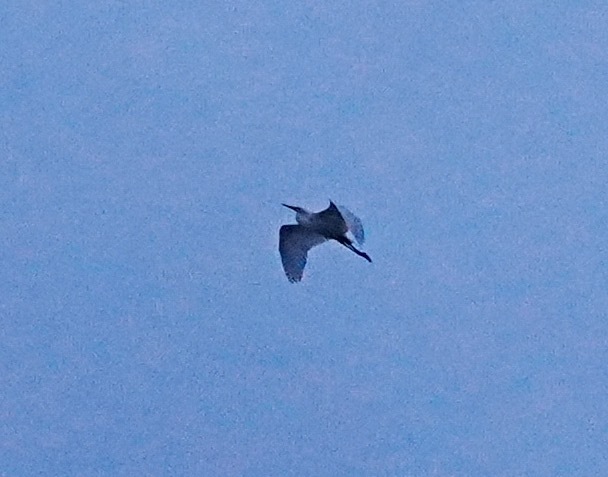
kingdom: Animalia
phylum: Chordata
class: Aves
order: Pelecaniformes
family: Ardeidae
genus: Ardea
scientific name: Ardea alba
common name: Great egret
